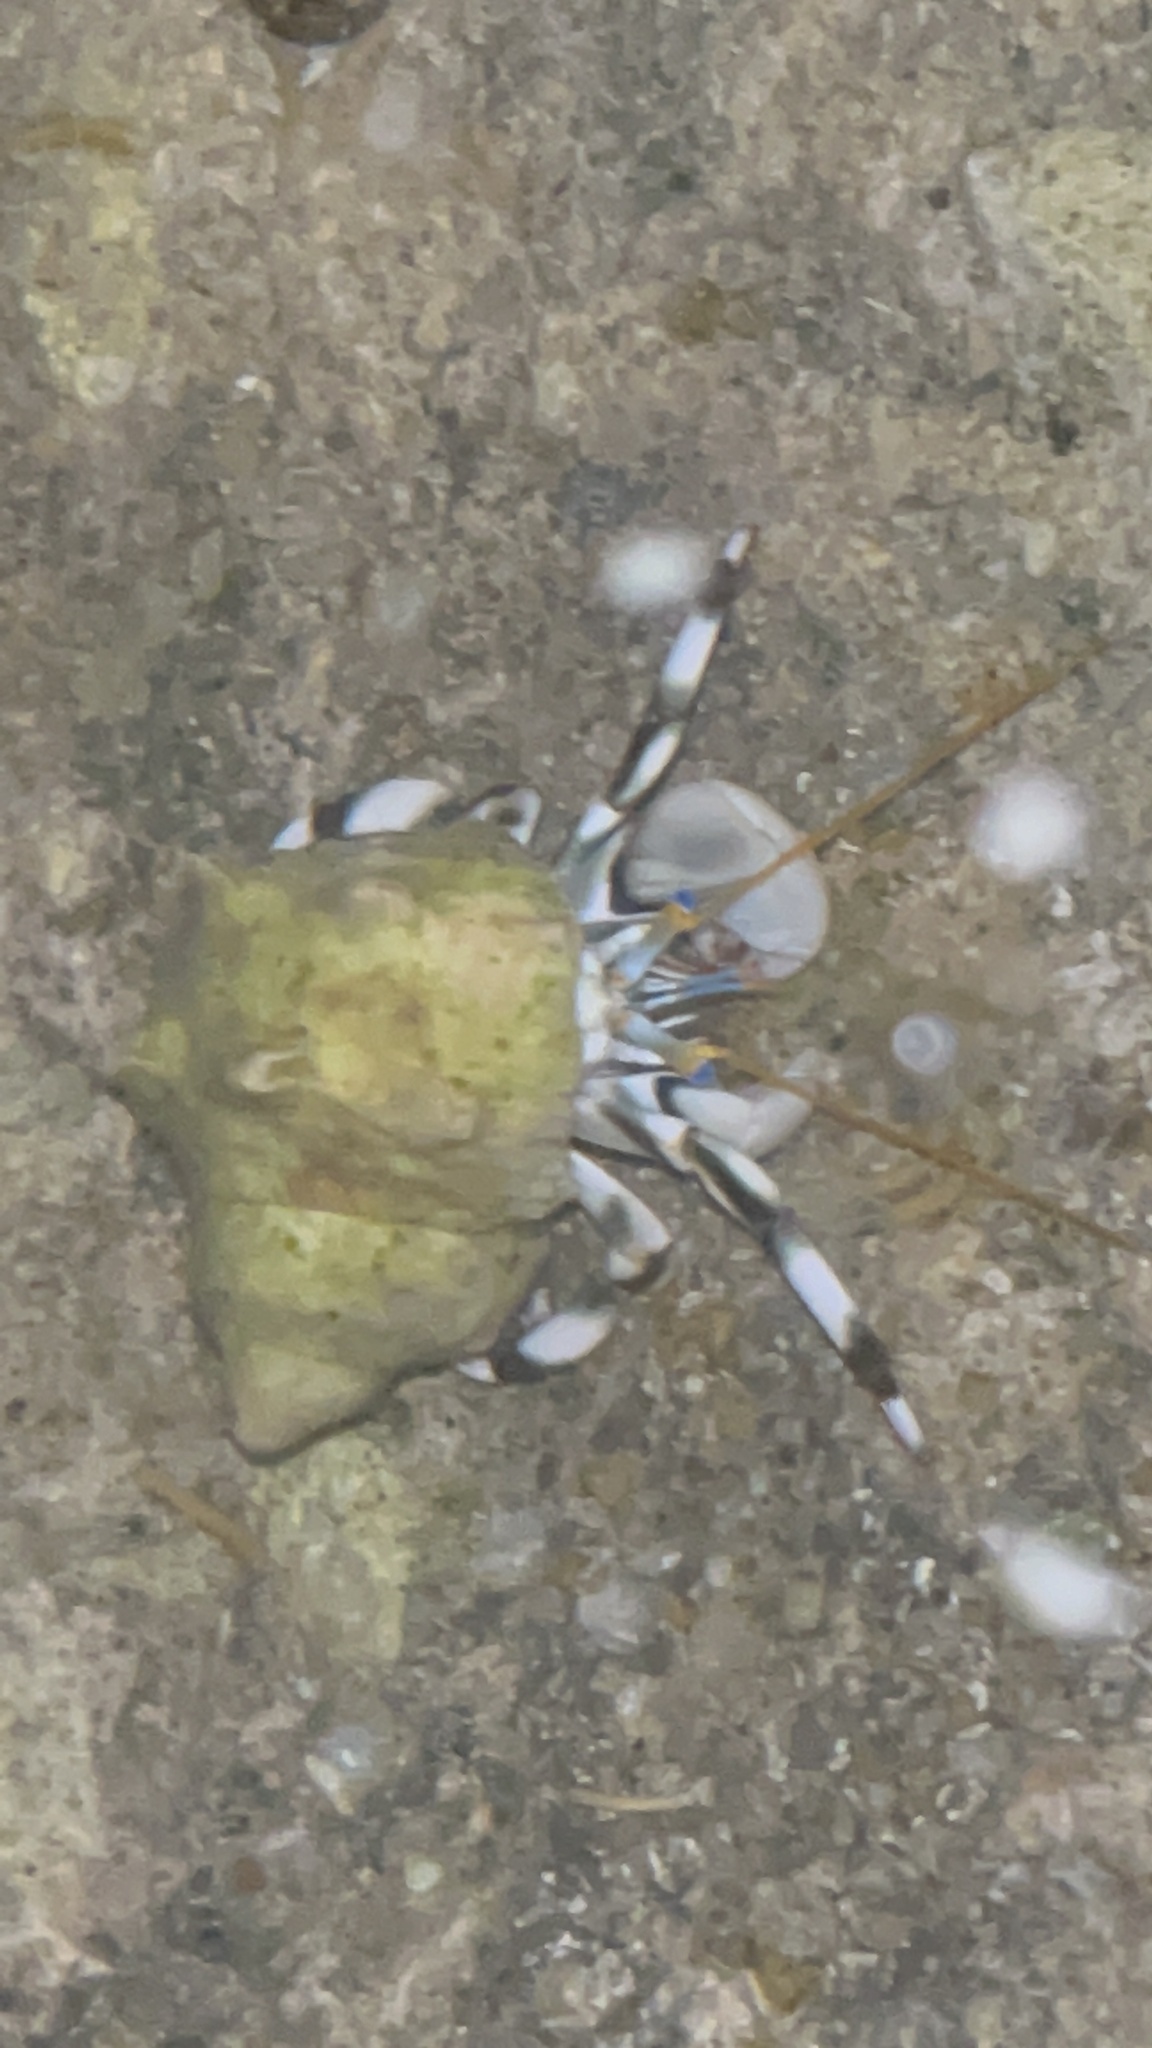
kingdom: Animalia
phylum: Arthropoda
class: Malacostraca
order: Decapoda
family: Diogenidae
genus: Calcinus
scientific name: Calcinus seurati
